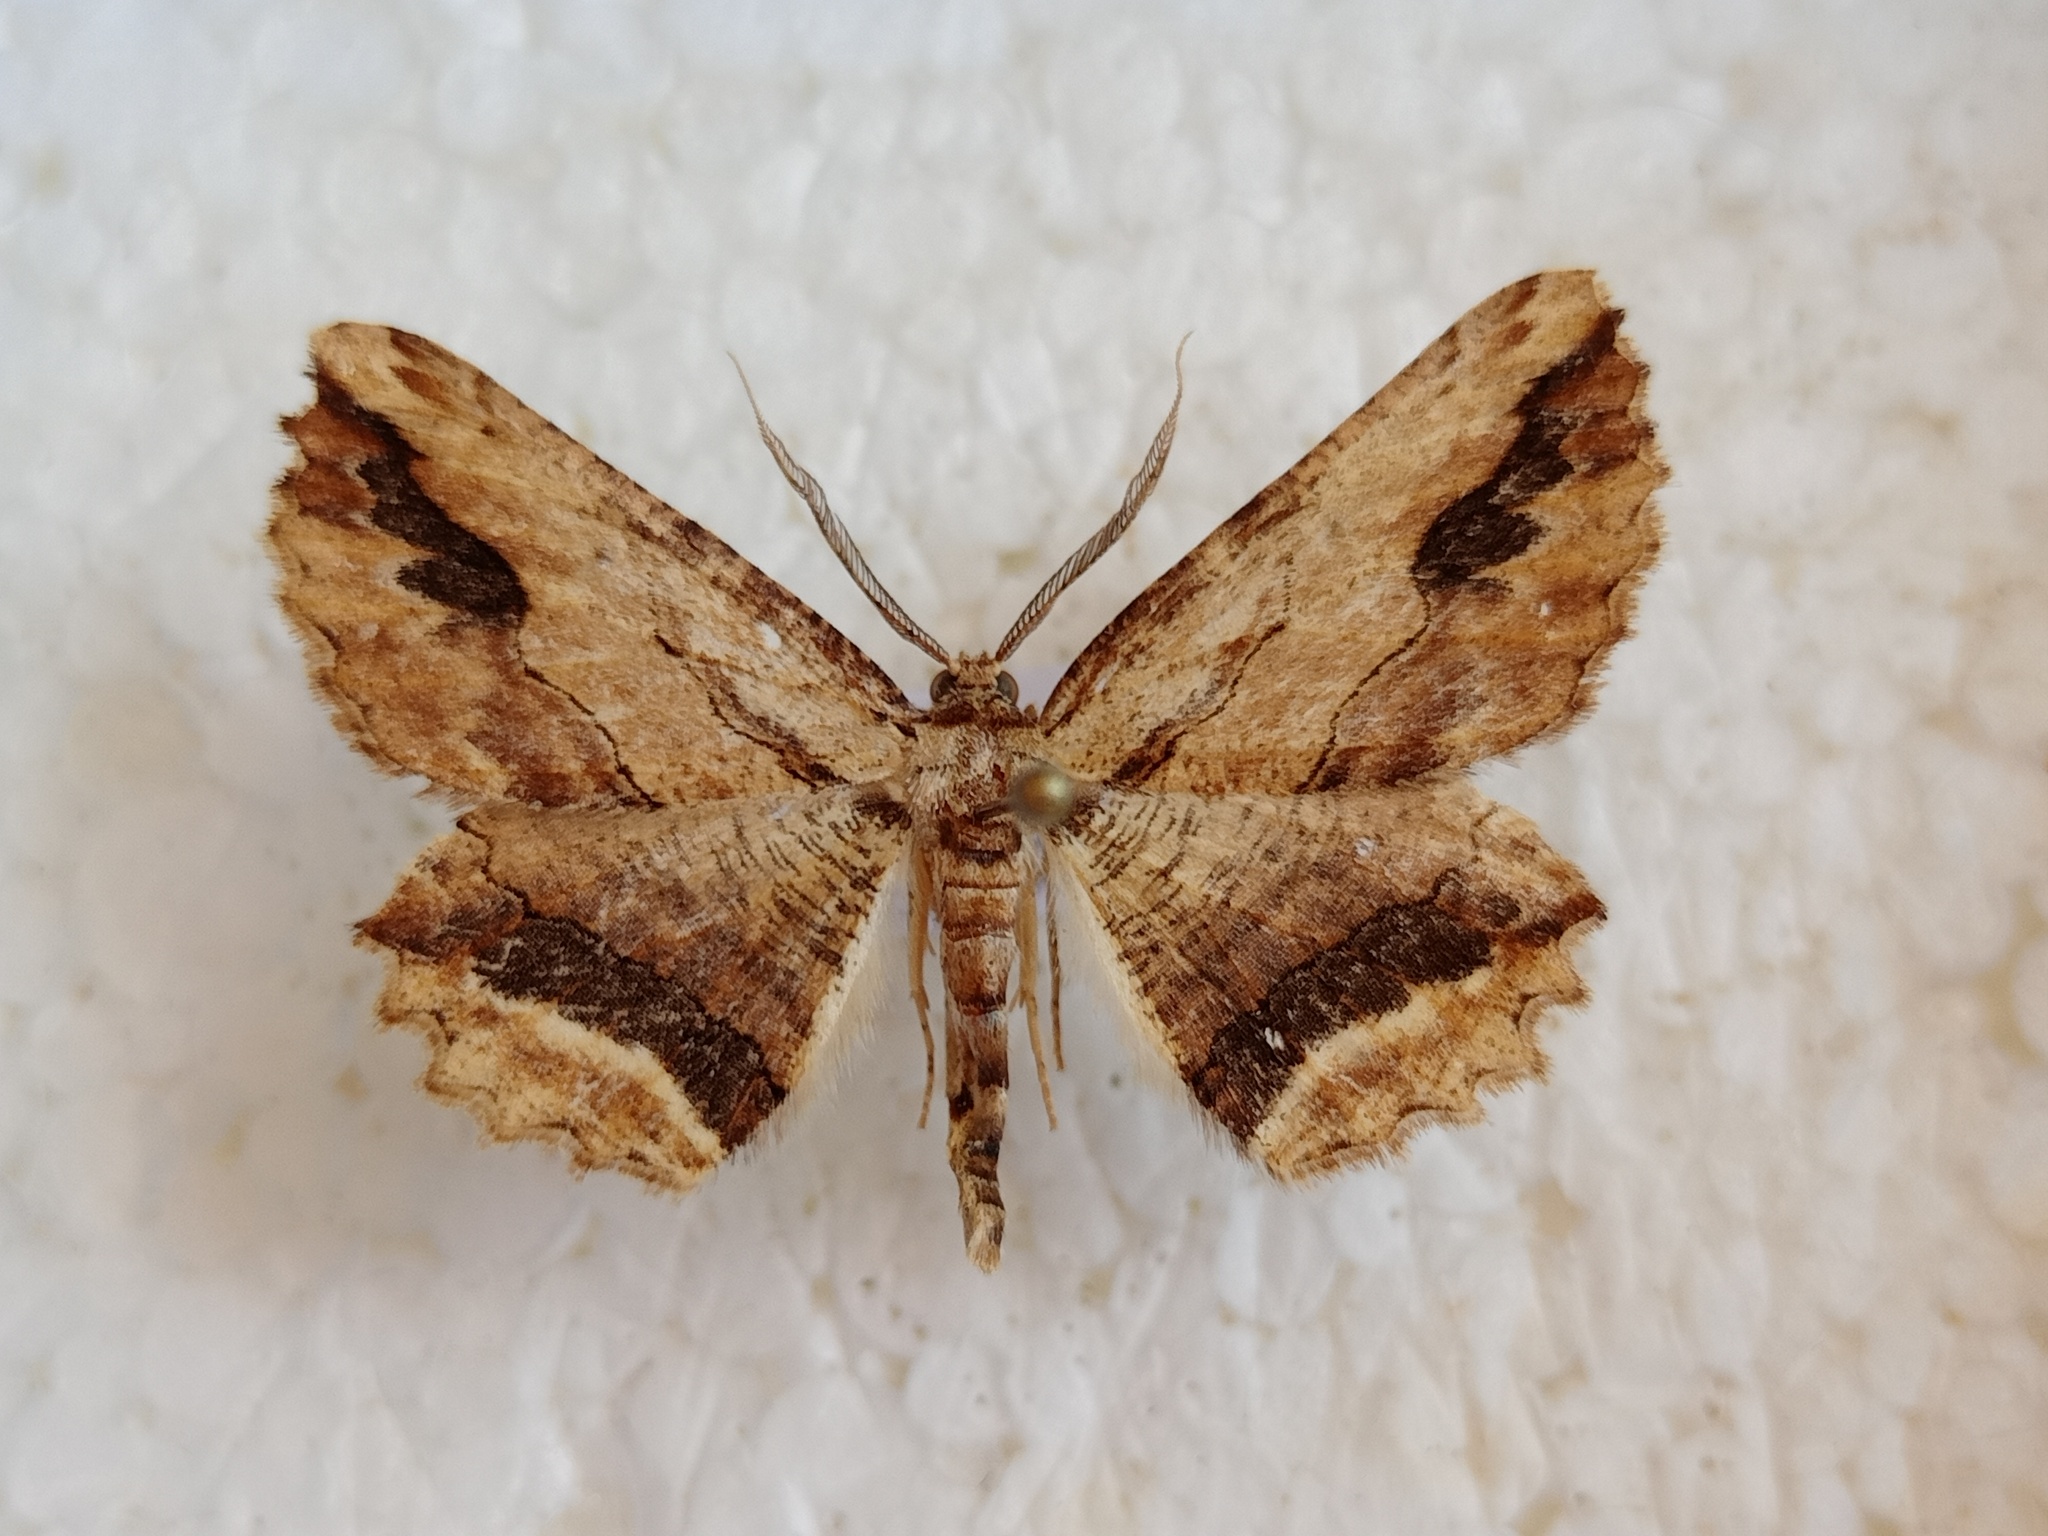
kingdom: Animalia
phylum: Arthropoda
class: Insecta
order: Lepidoptera
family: Geometridae
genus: Menophra
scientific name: Menophra abruptaria
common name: Waved umber
